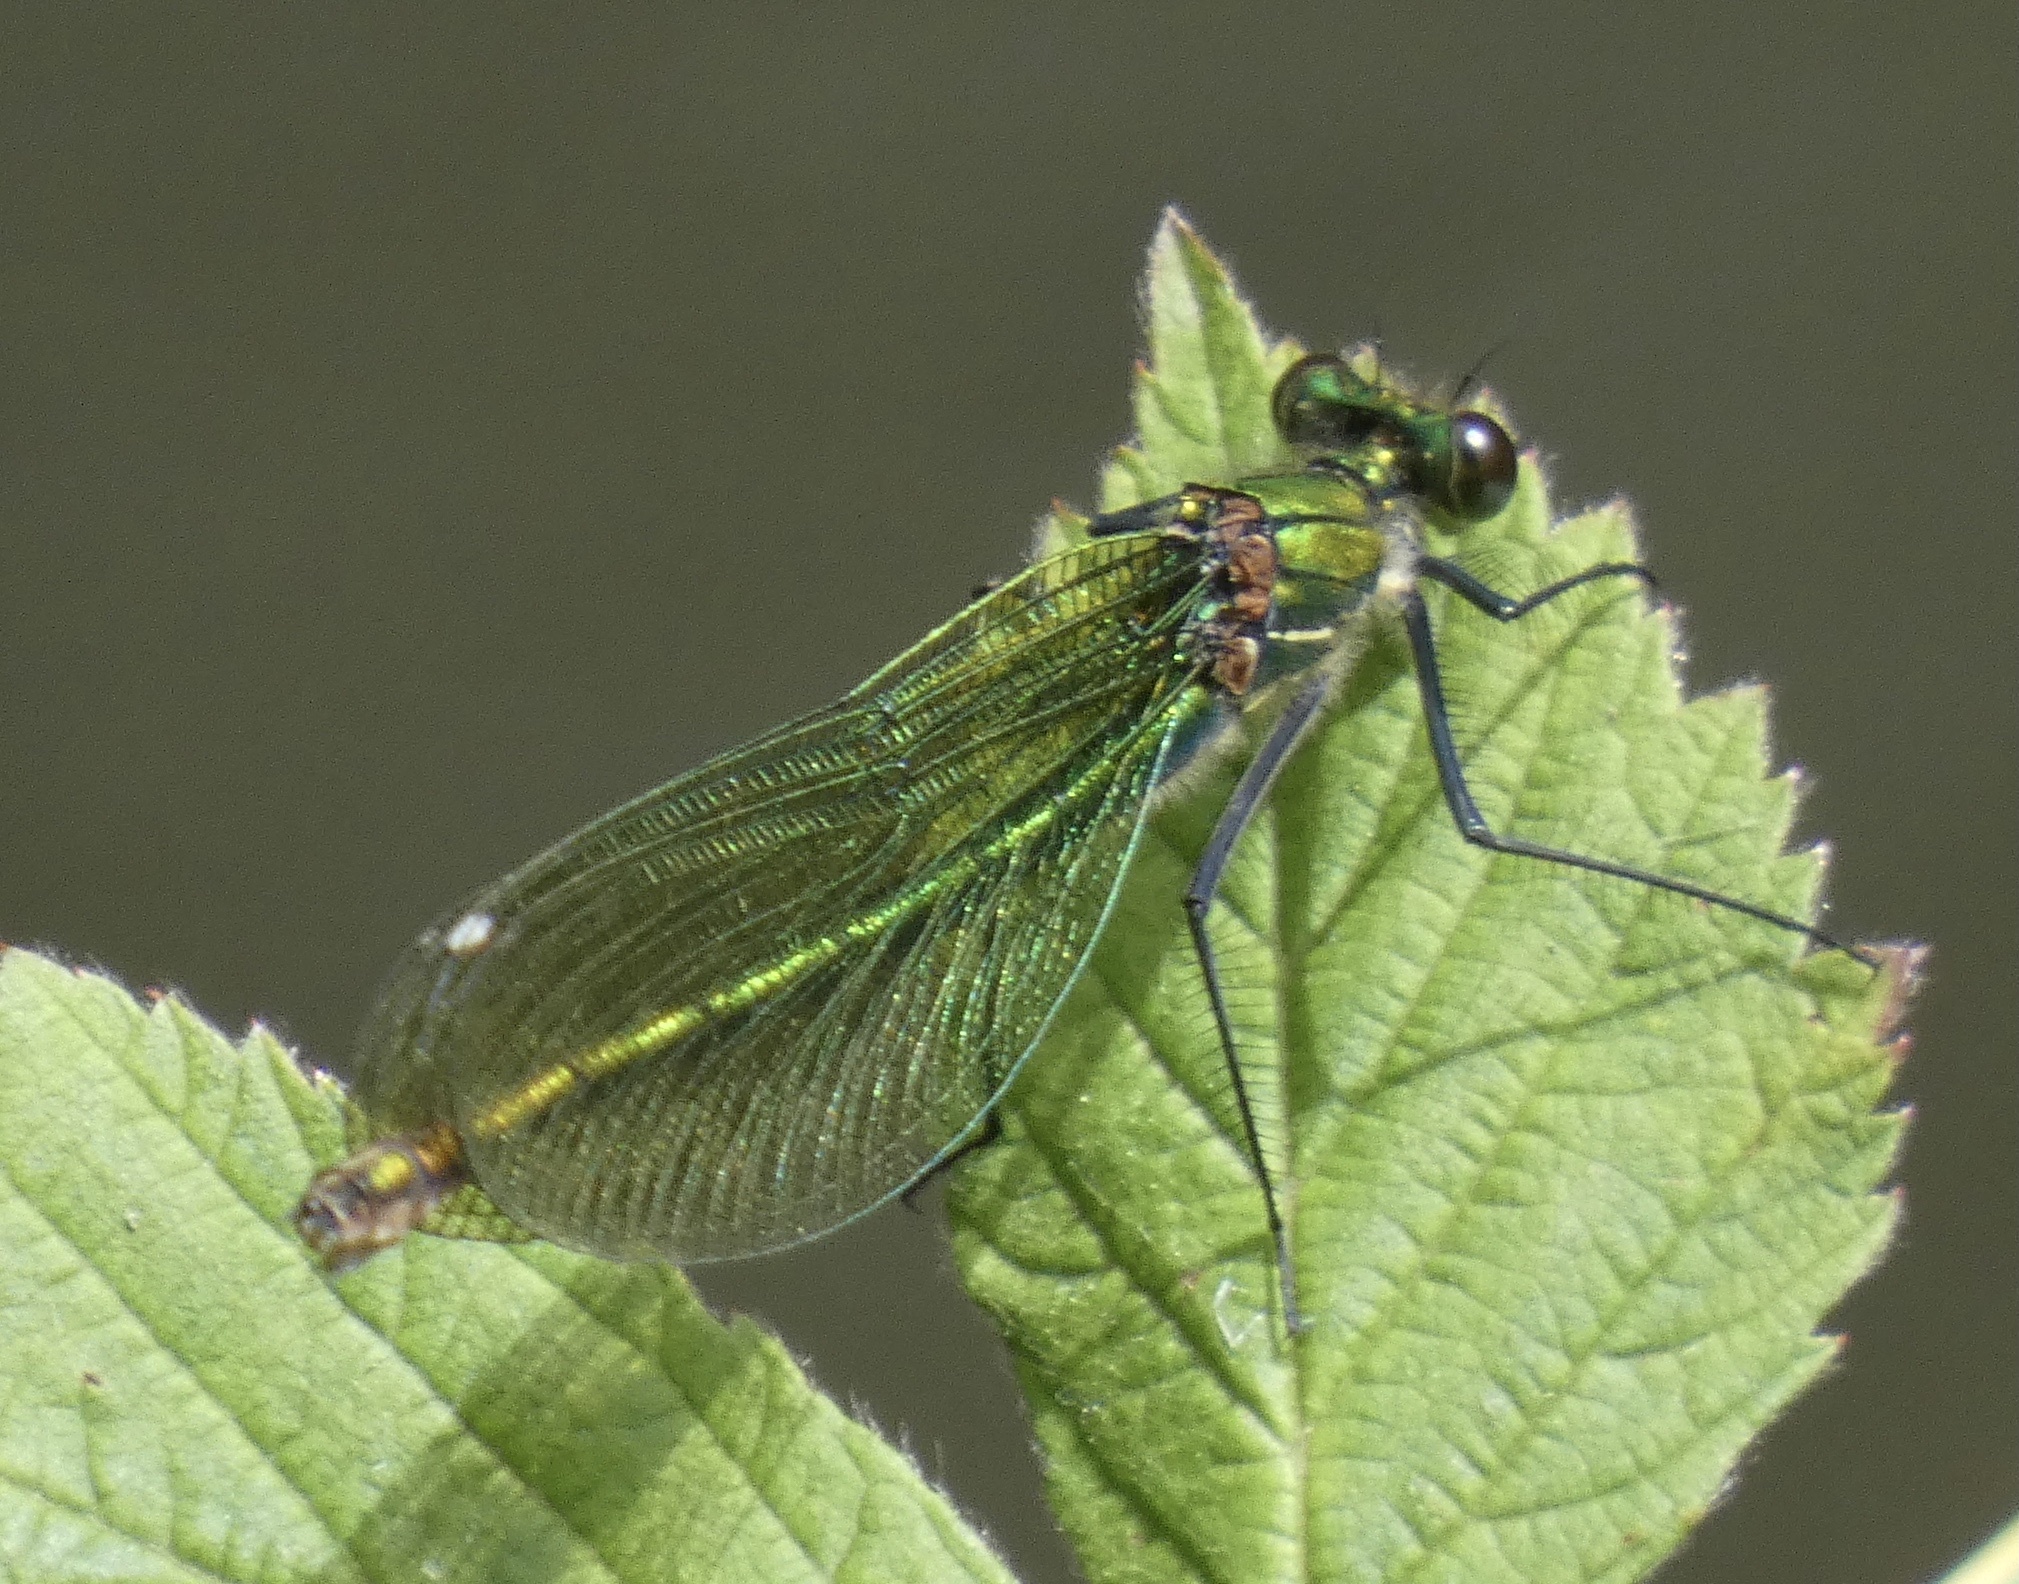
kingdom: Animalia
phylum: Arthropoda
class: Insecta
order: Odonata
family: Calopterygidae
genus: Calopteryx
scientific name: Calopteryx splendens
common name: Banded demoiselle
